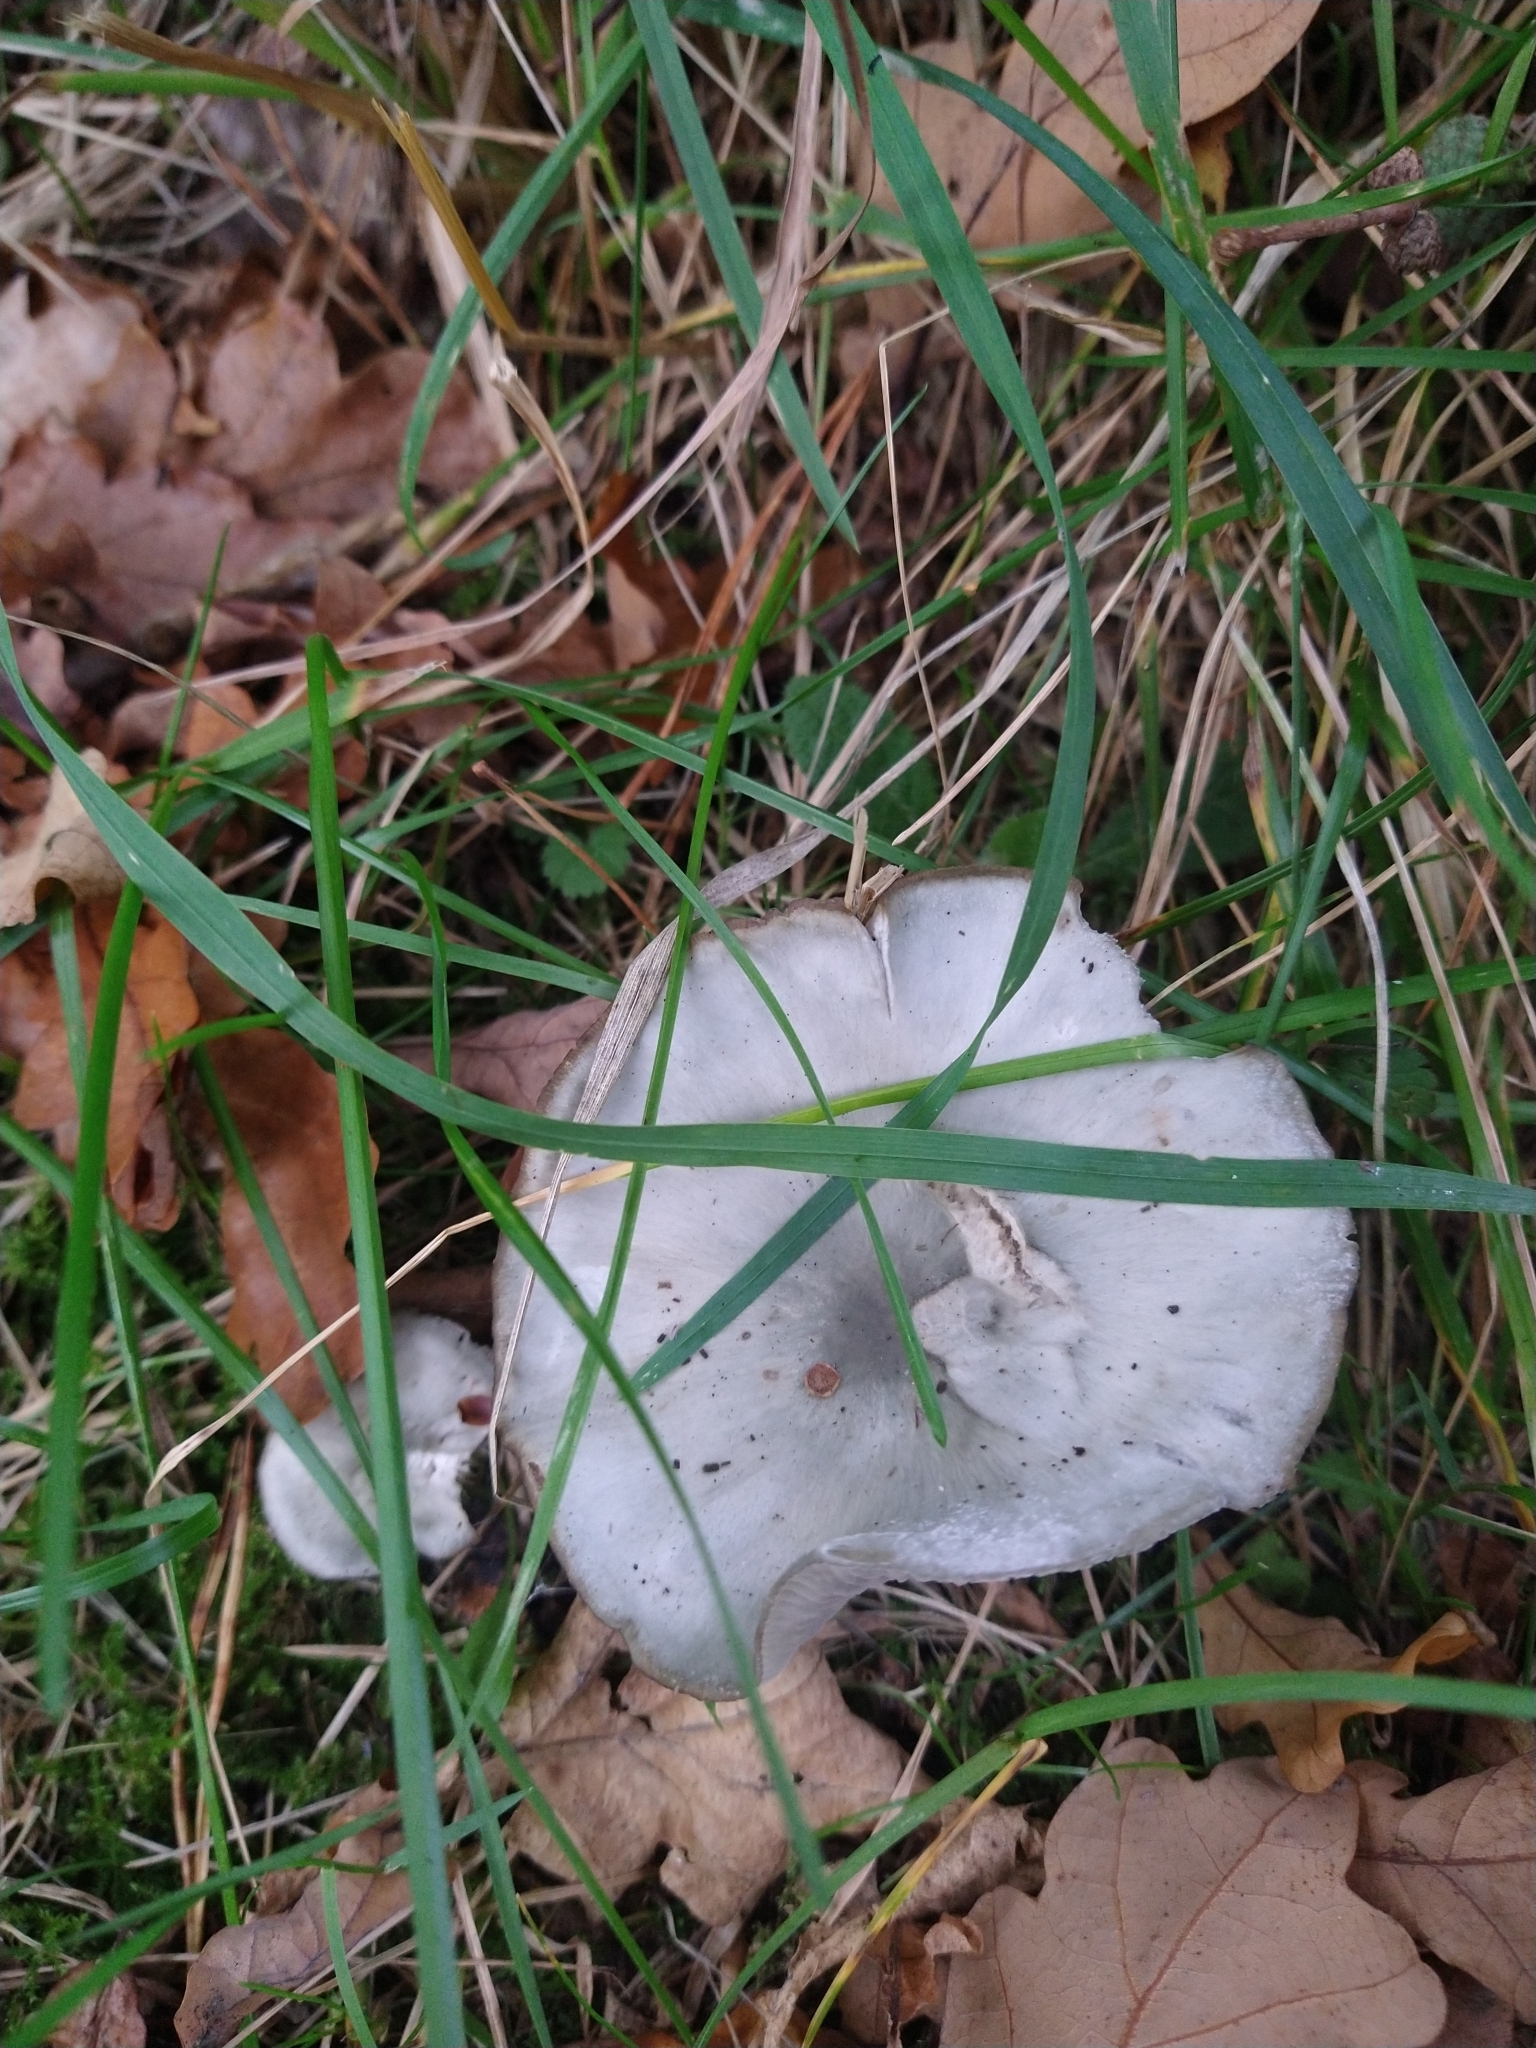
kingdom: Fungi
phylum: Basidiomycota
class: Agaricomycetes
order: Agaricales
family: Tricholomataceae
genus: Collybia
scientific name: Collybia
